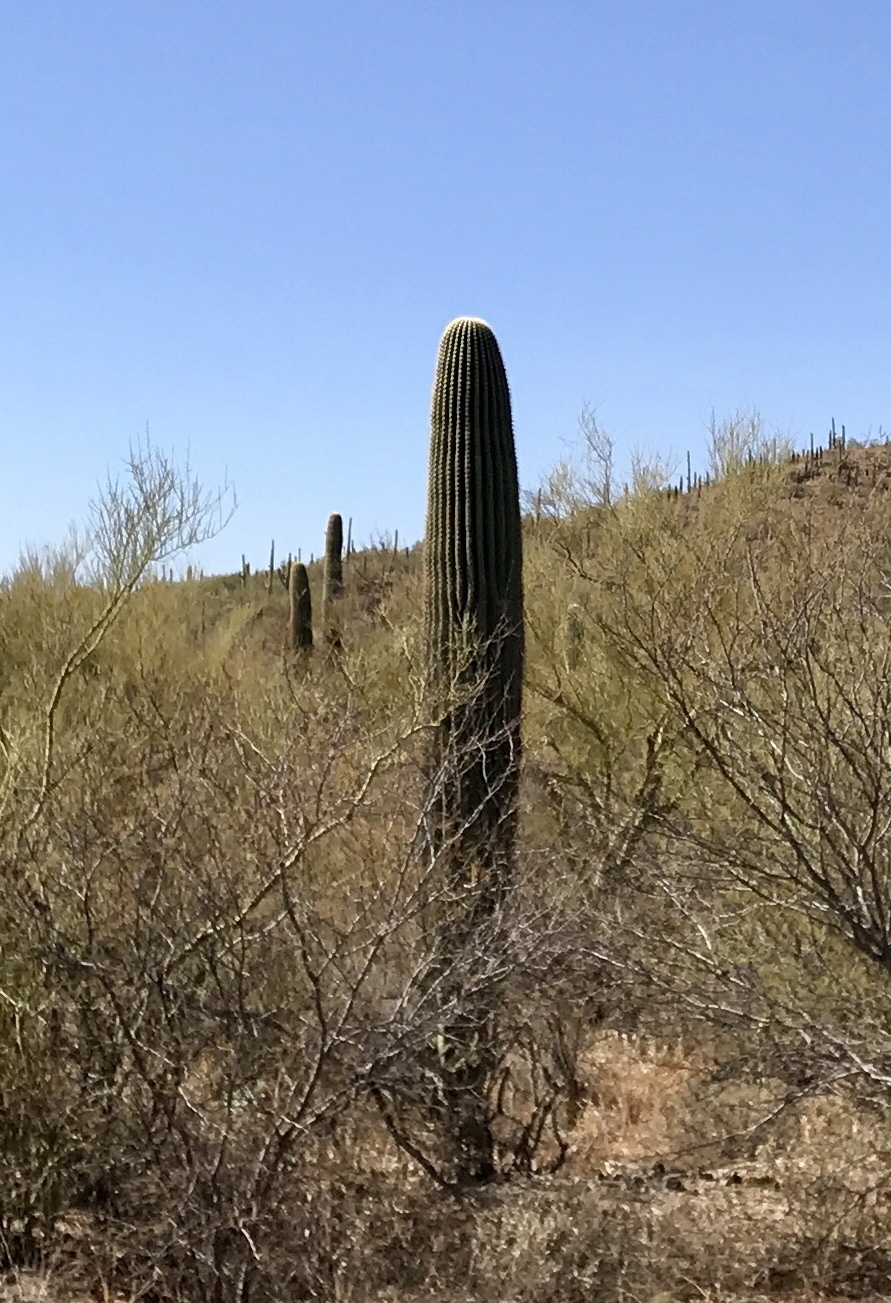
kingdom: Plantae
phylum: Tracheophyta
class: Magnoliopsida
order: Caryophyllales
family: Cactaceae
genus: Carnegiea
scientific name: Carnegiea gigantea
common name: Saguaro
